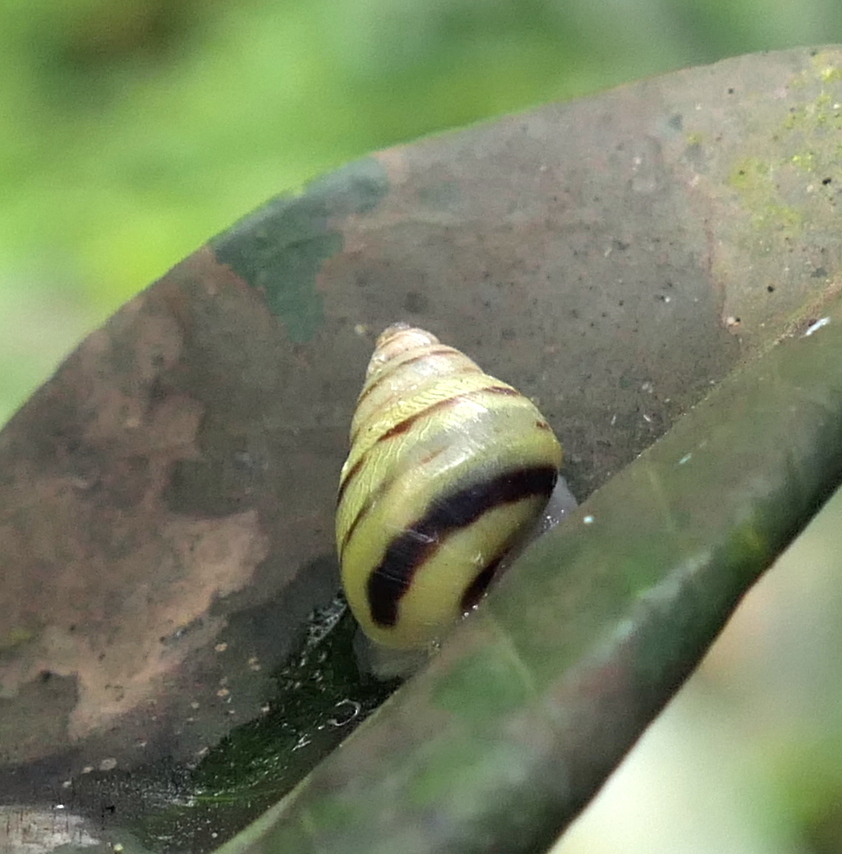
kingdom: Animalia
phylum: Mollusca
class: Gastropoda
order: Stylommatophora
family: Bulimulidae
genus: Drymaeus
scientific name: Drymaeus
